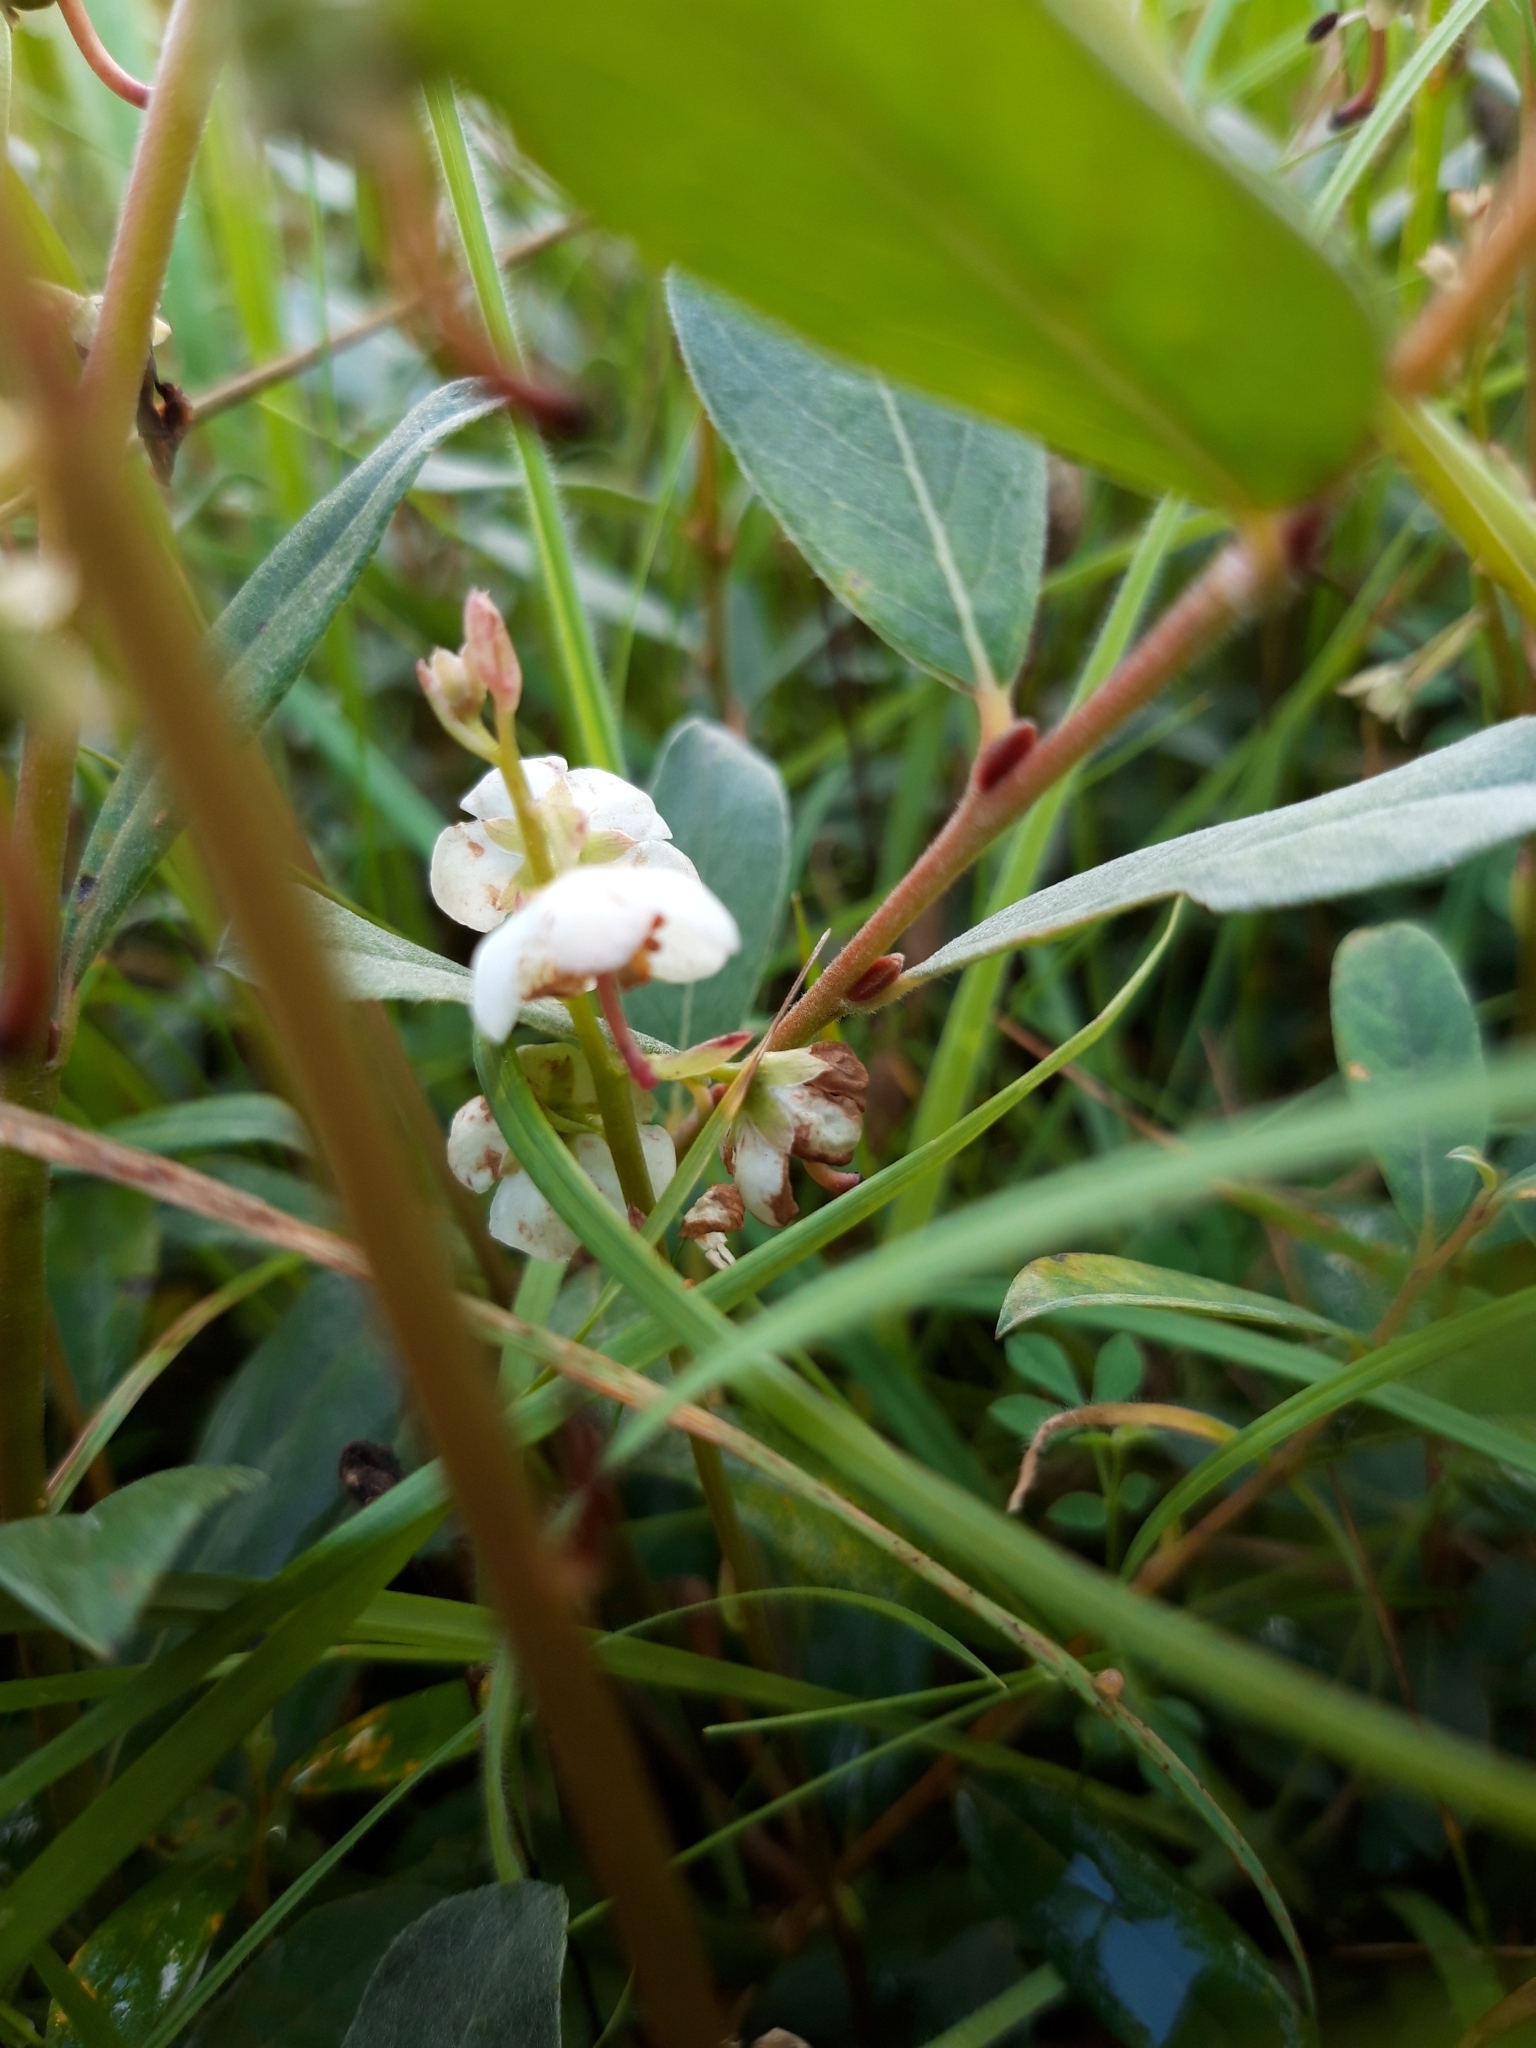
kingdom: Plantae
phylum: Tracheophyta
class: Magnoliopsida
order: Ericales
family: Ericaceae
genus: Pyrola
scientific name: Pyrola rotundifolia
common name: Round-leaved wintergreen
